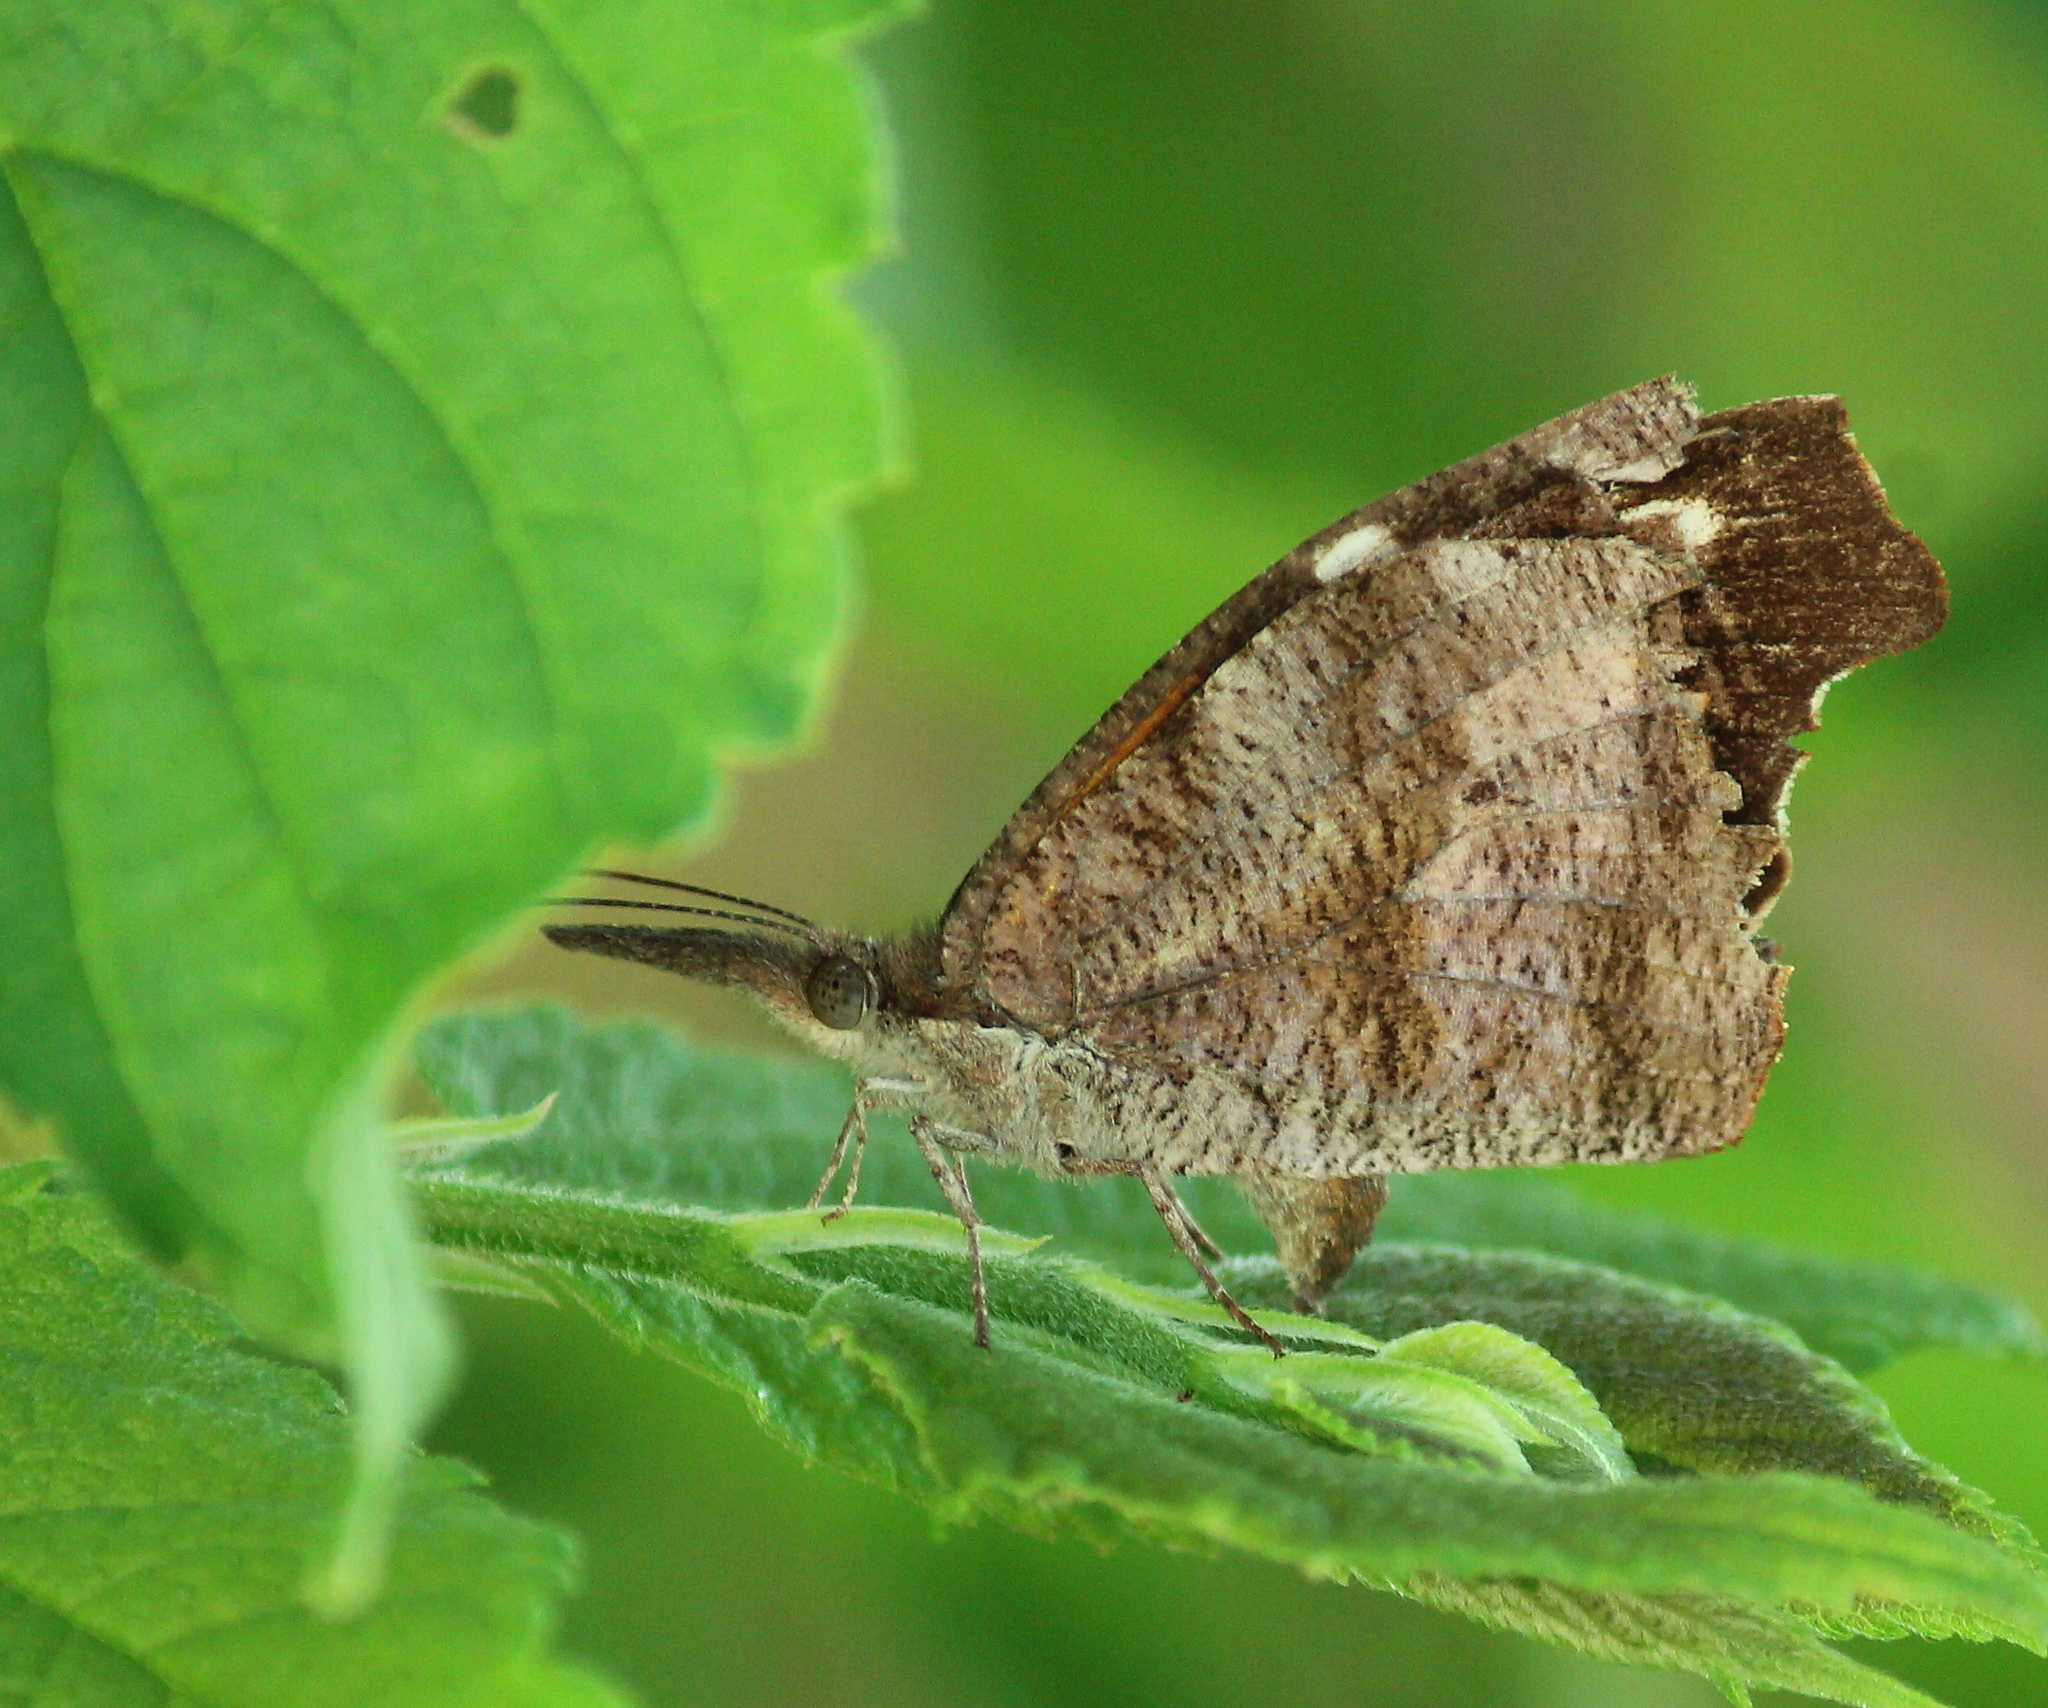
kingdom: Animalia
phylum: Arthropoda
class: Insecta
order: Lepidoptera
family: Nymphalidae
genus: Libytheana
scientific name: Libytheana carinenta
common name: American snout
